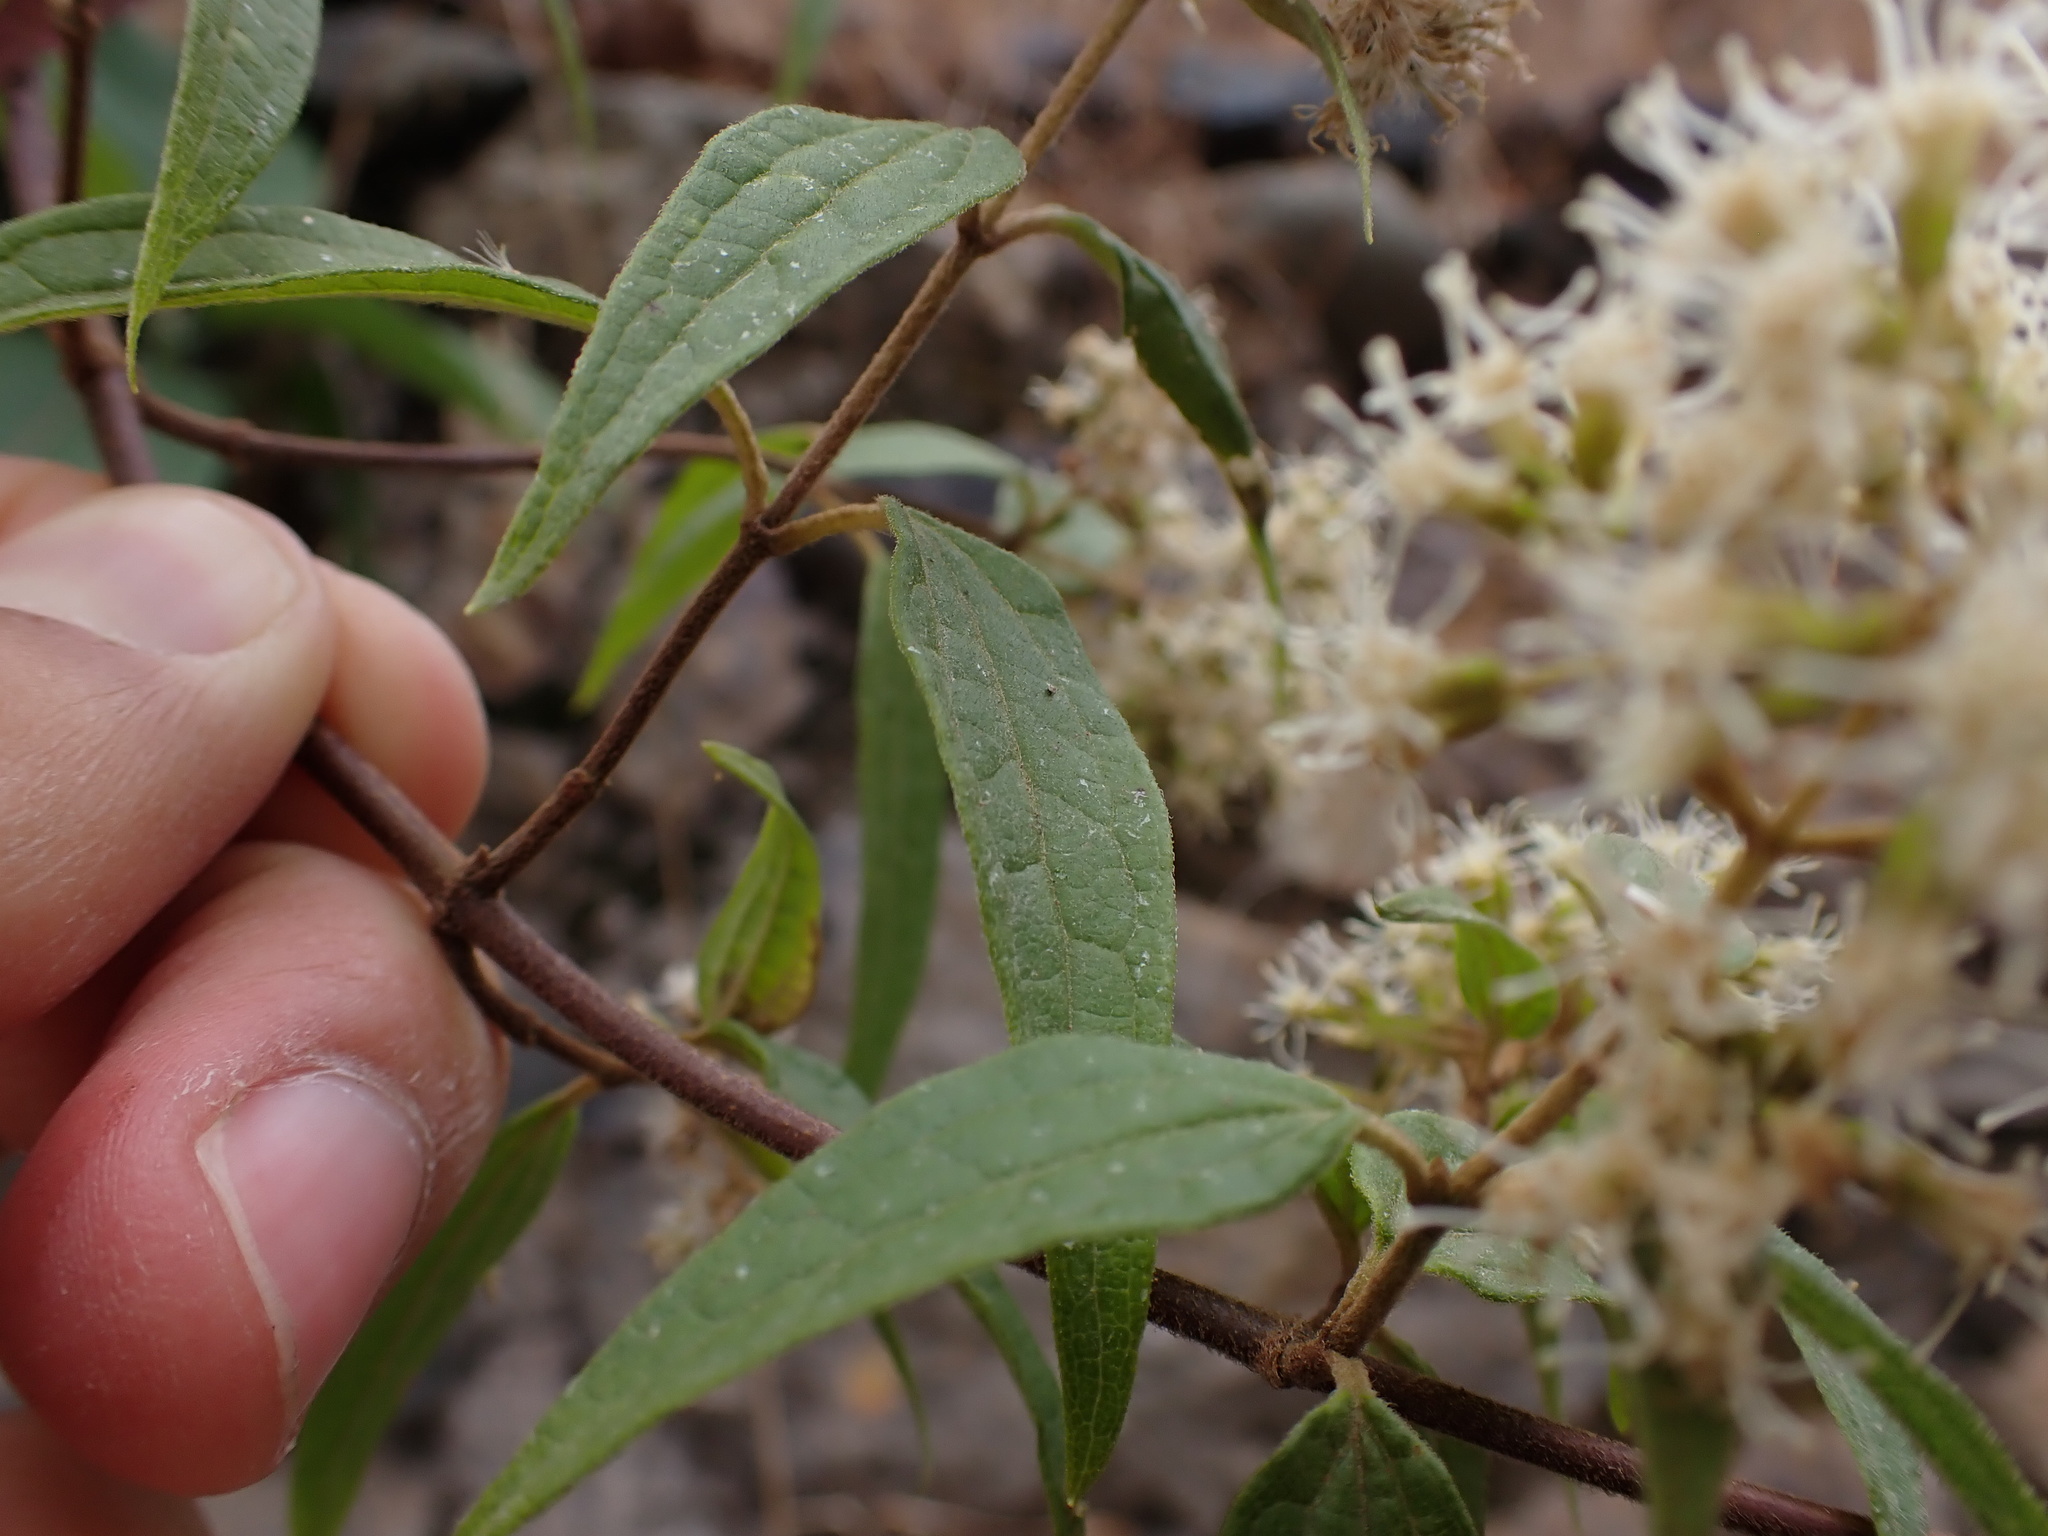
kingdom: Plantae
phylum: Tracheophyta
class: Magnoliopsida
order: Asterales
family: Asteraceae
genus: Ophryosporus
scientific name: Ophryosporus piquerioides
